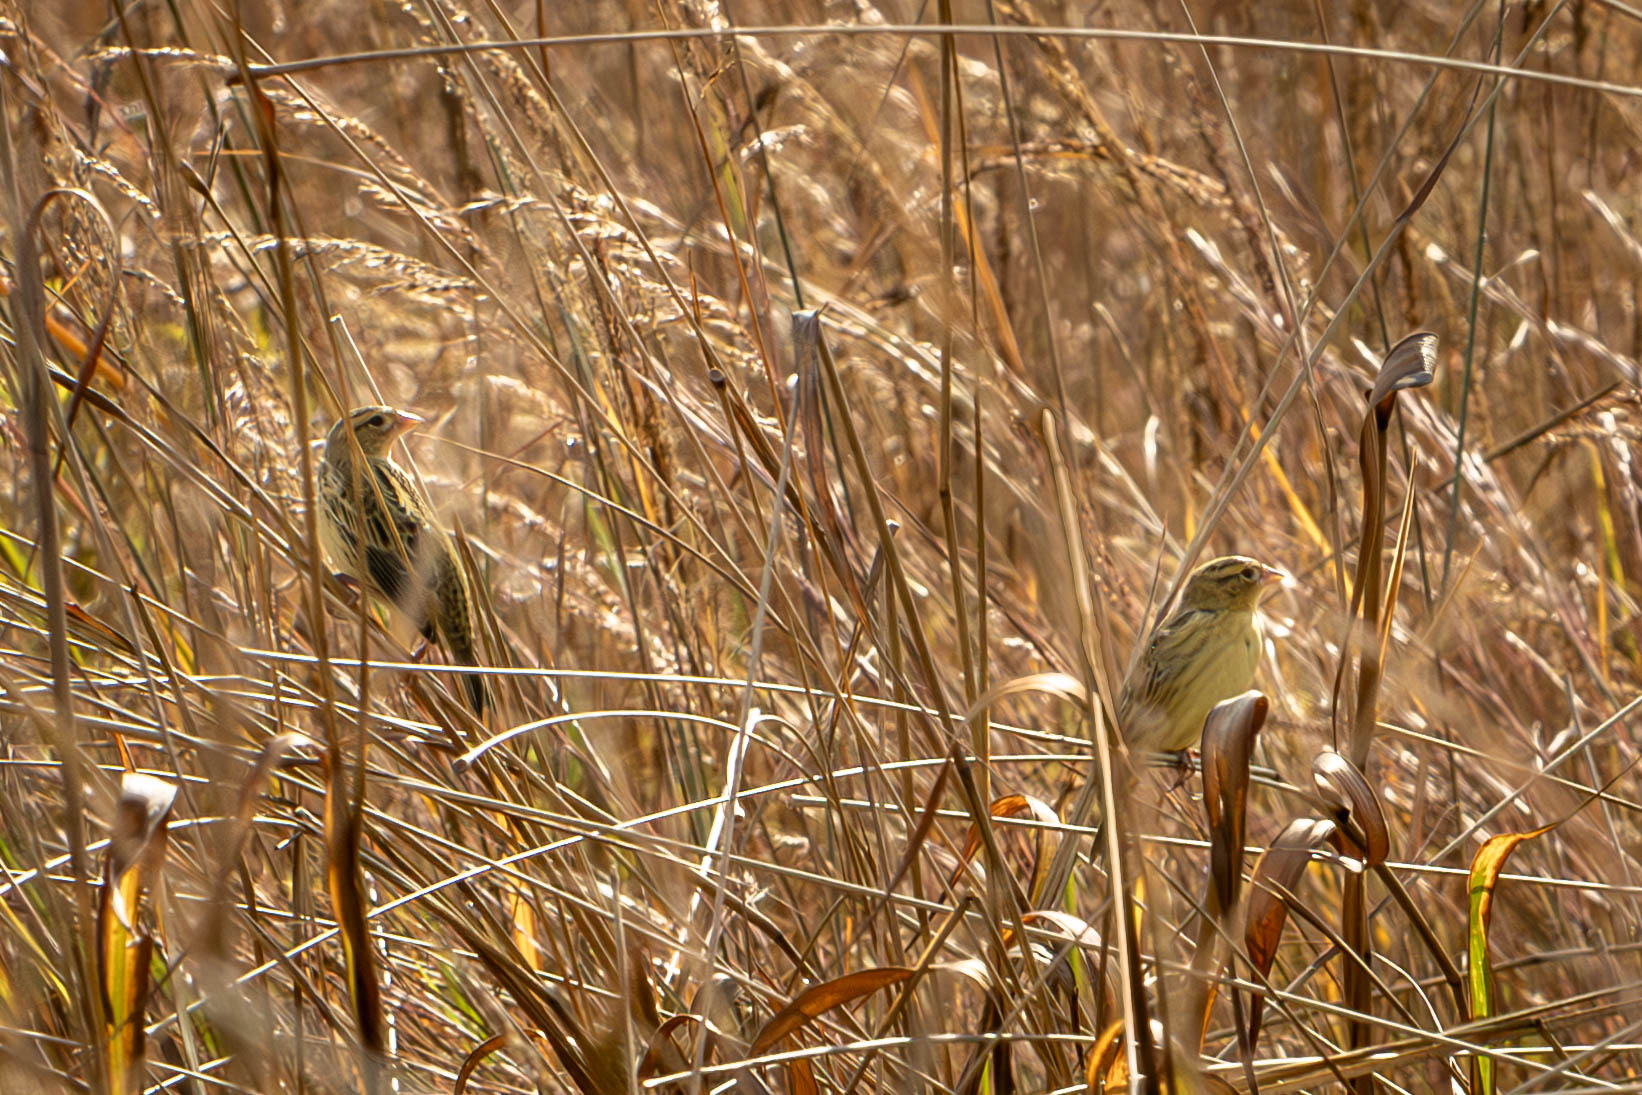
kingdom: Animalia
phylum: Chordata
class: Aves
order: Passeriformes
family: Icteridae
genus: Dolichonyx
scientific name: Dolichonyx oryzivorus
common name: Bobolink
